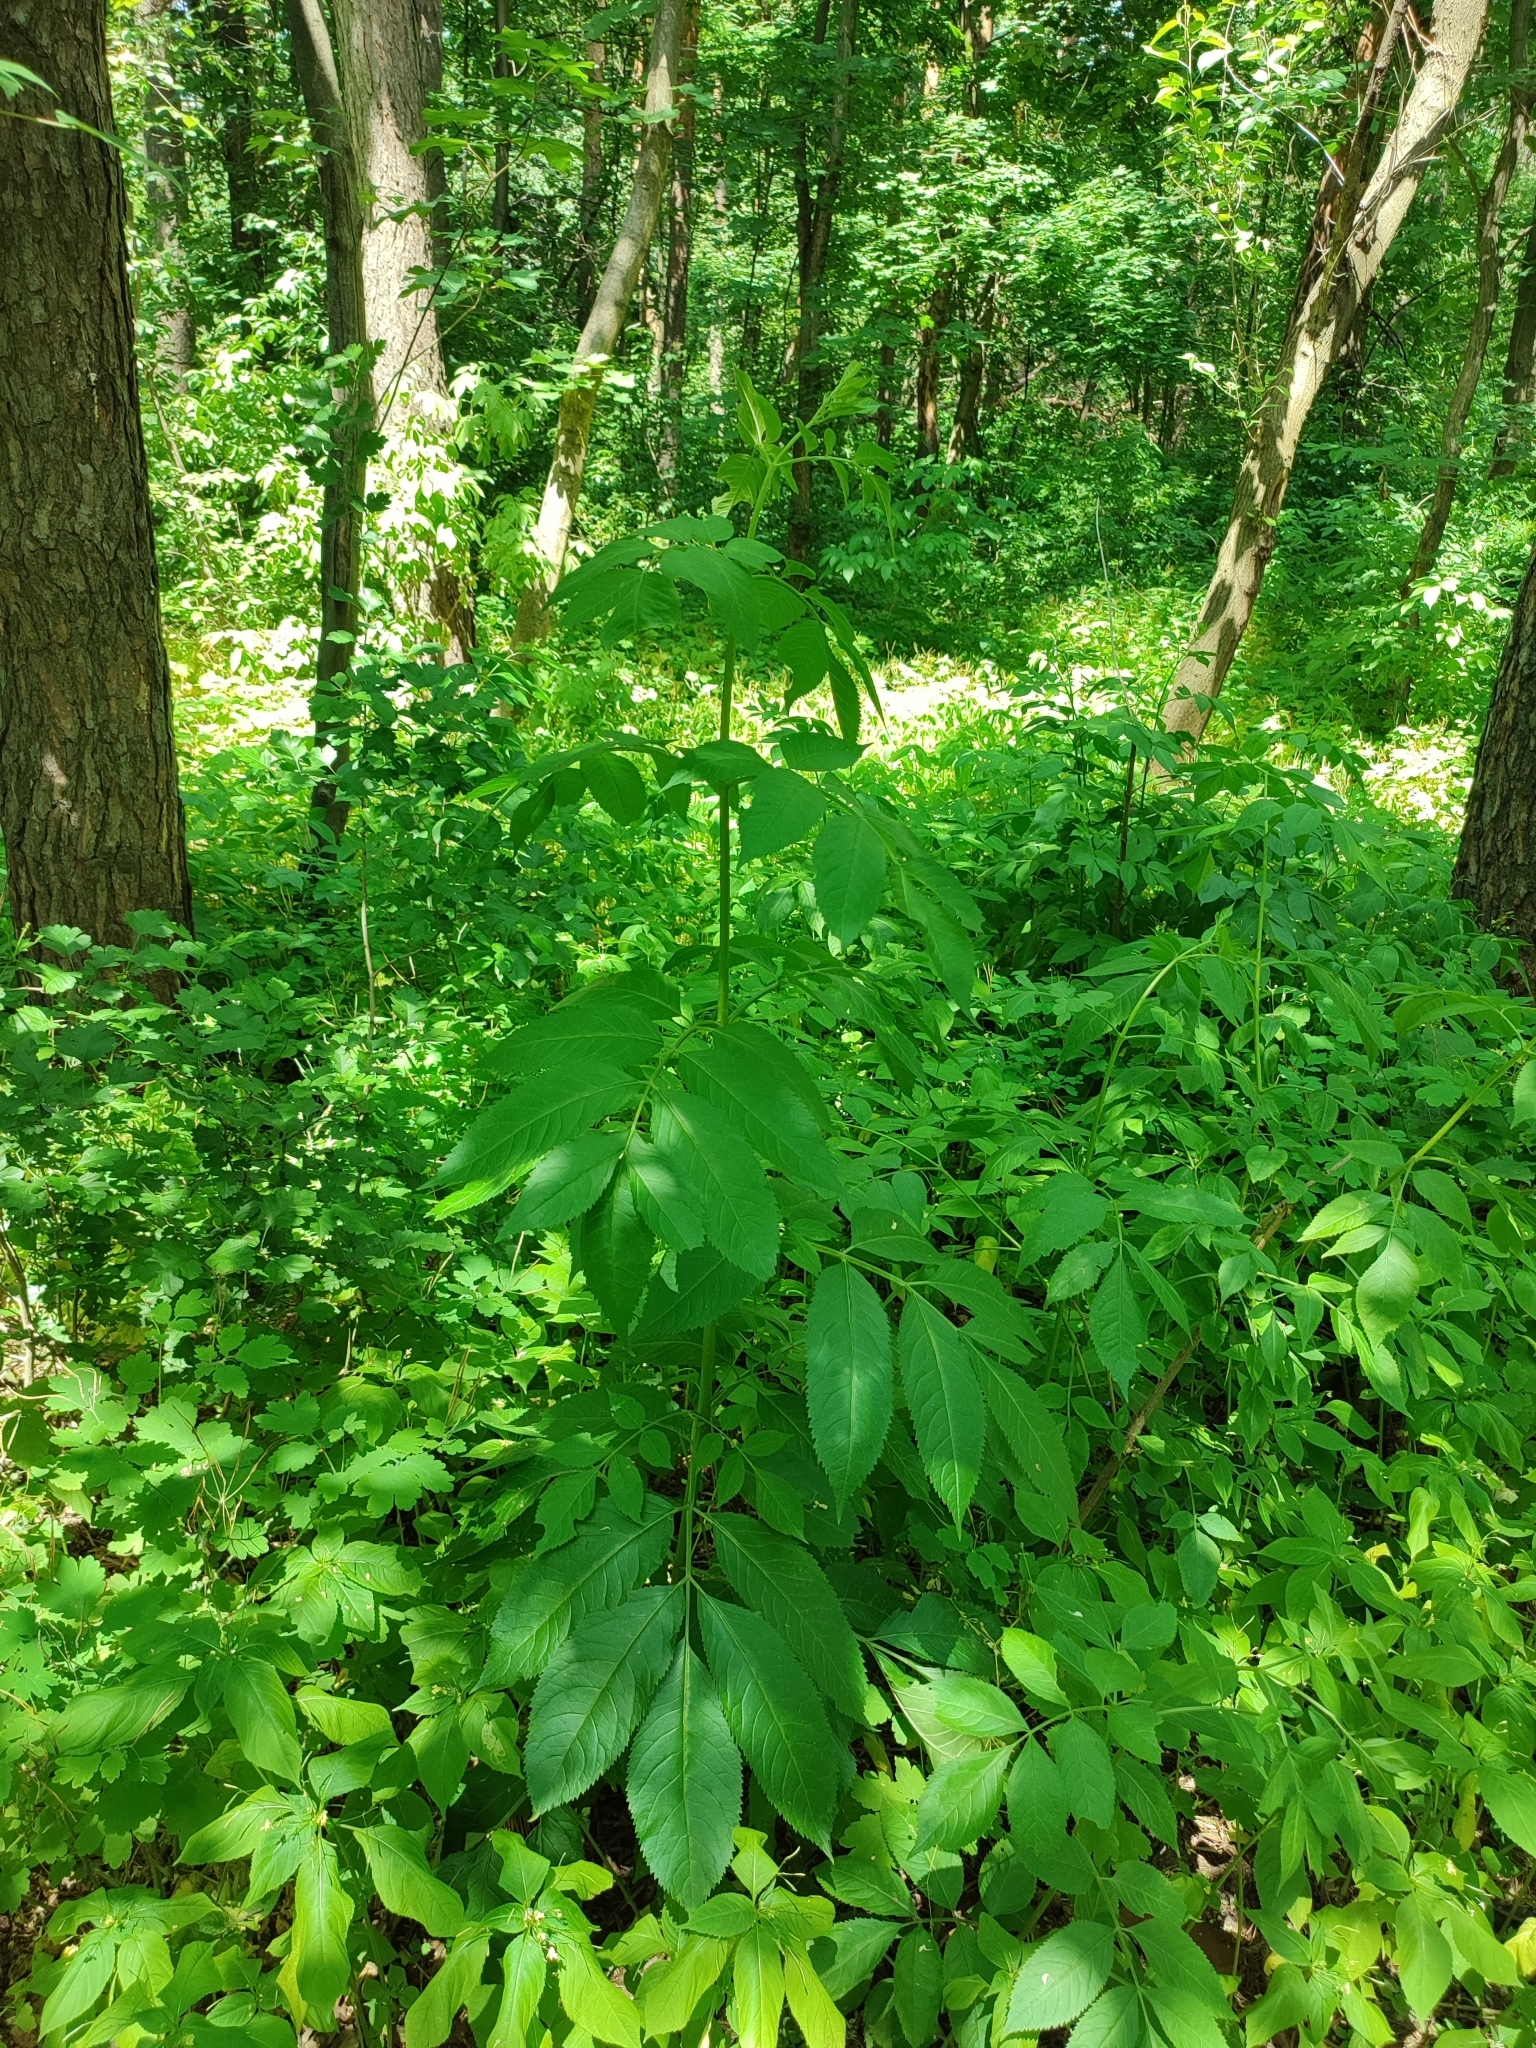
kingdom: Plantae
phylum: Tracheophyta
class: Magnoliopsida
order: Dipsacales
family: Viburnaceae
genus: Sambucus
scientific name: Sambucus nigra
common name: Elder
